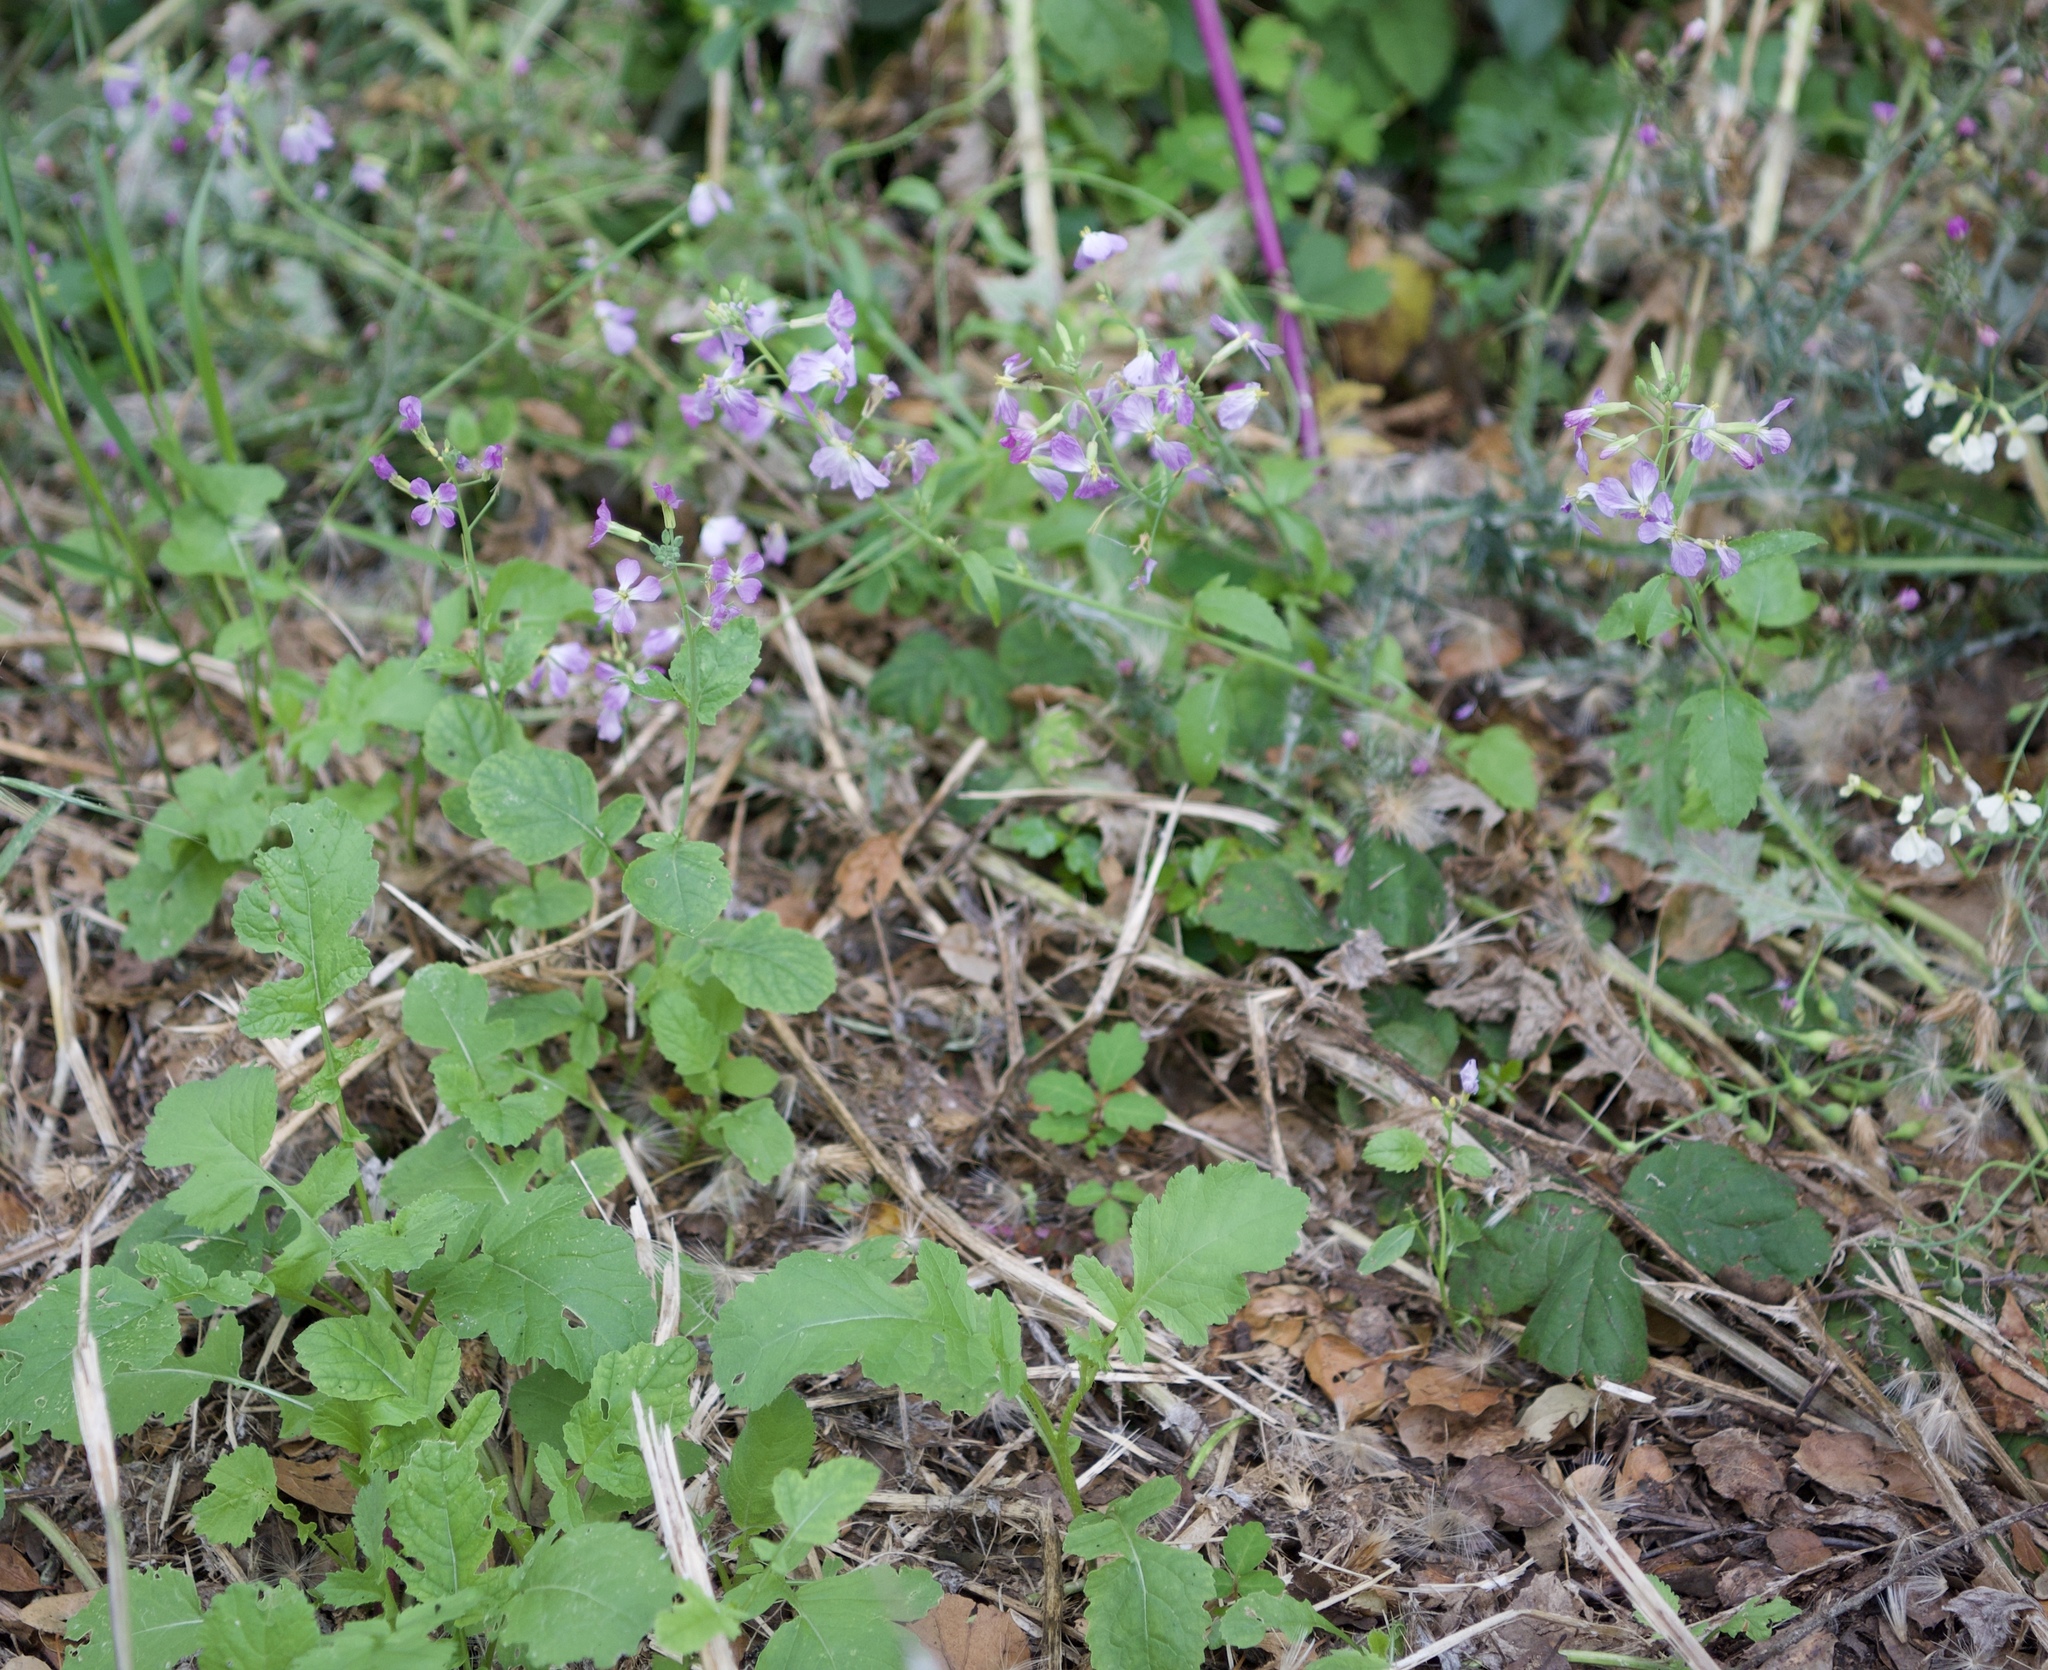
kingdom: Plantae
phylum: Tracheophyta
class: Magnoliopsida
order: Brassicales
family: Brassicaceae
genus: Raphanus
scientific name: Raphanus sativus
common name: Cultivated radish
